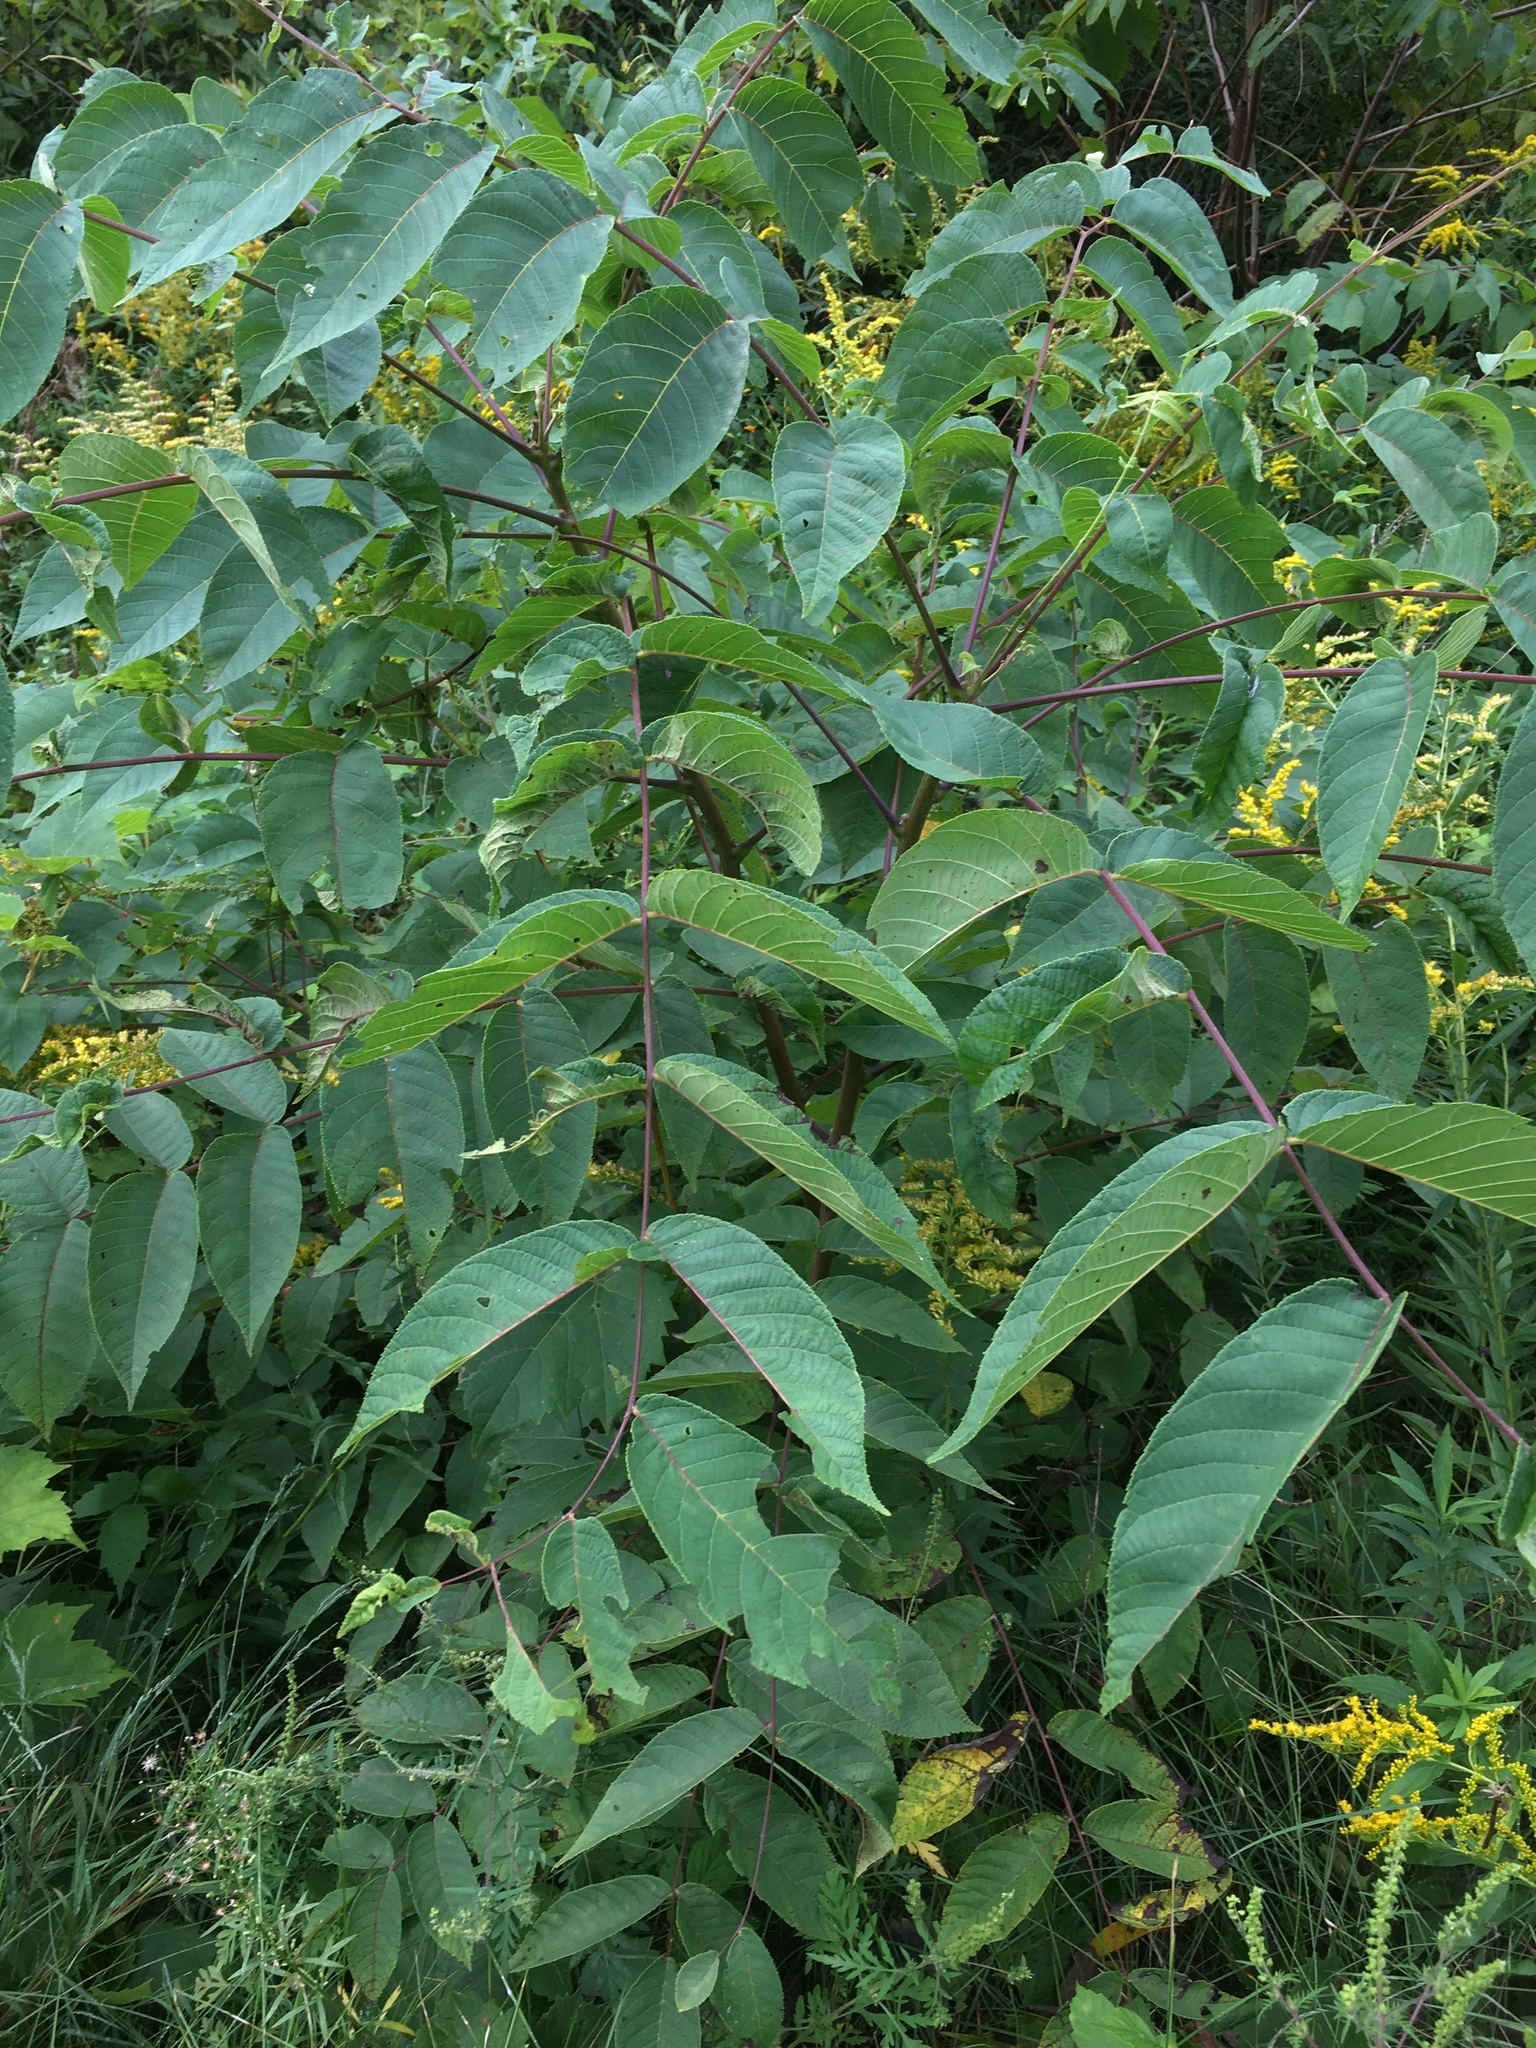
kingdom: Plantae
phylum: Tracheophyta
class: Magnoliopsida
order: Fagales
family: Juglandaceae
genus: Juglans
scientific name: Juglans nigra
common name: Black walnut
